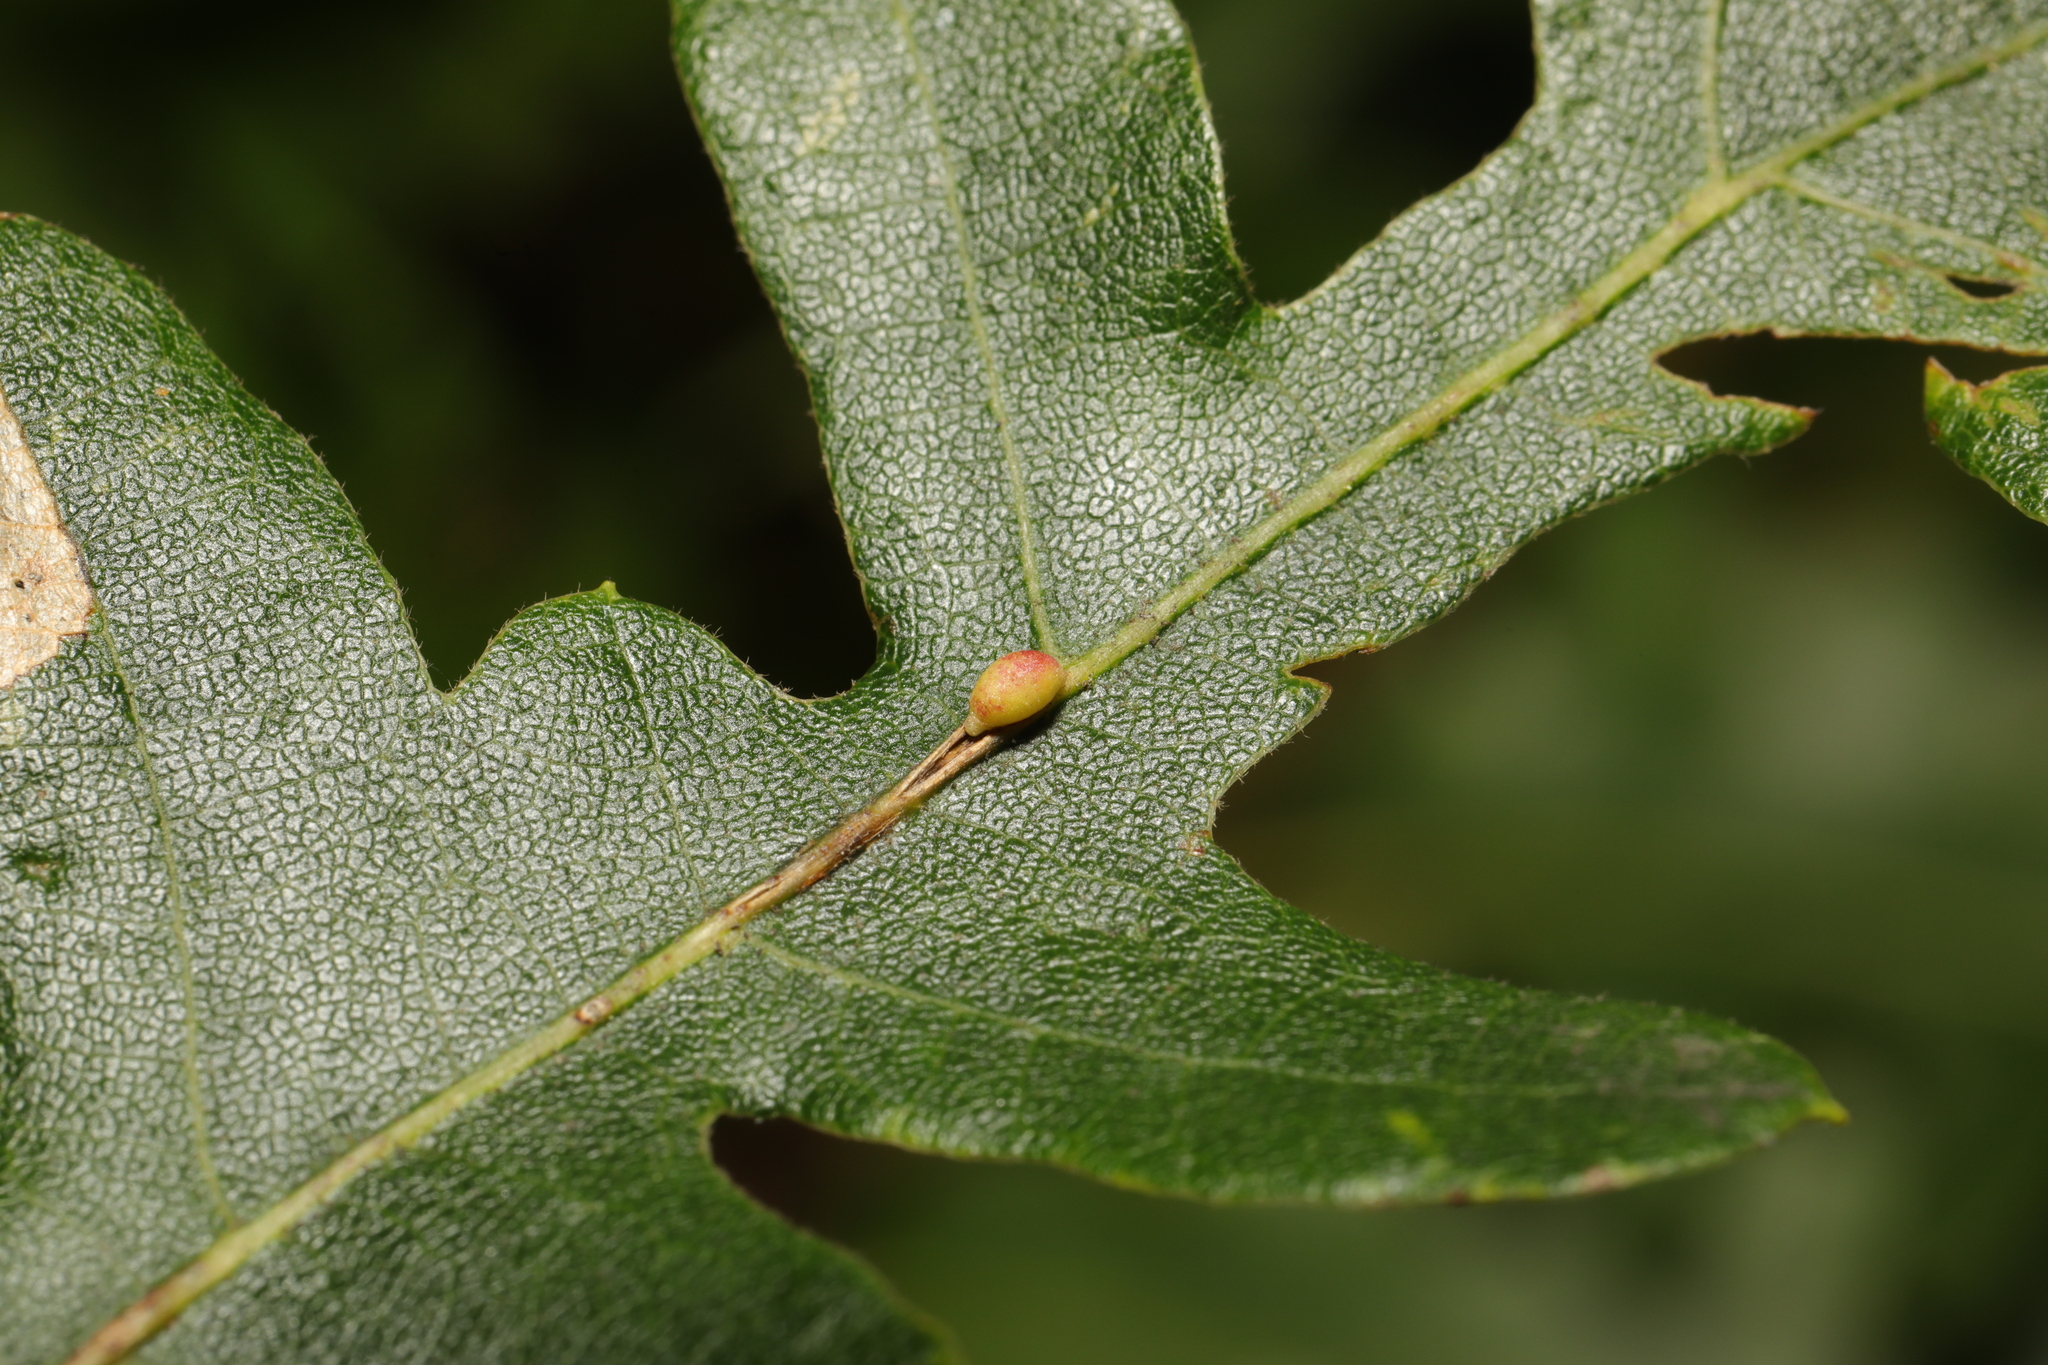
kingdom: Animalia
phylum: Arthropoda
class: Insecta
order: Hymenoptera
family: Cynipidae
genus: Neuroterus
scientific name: Neuroterus saliens
